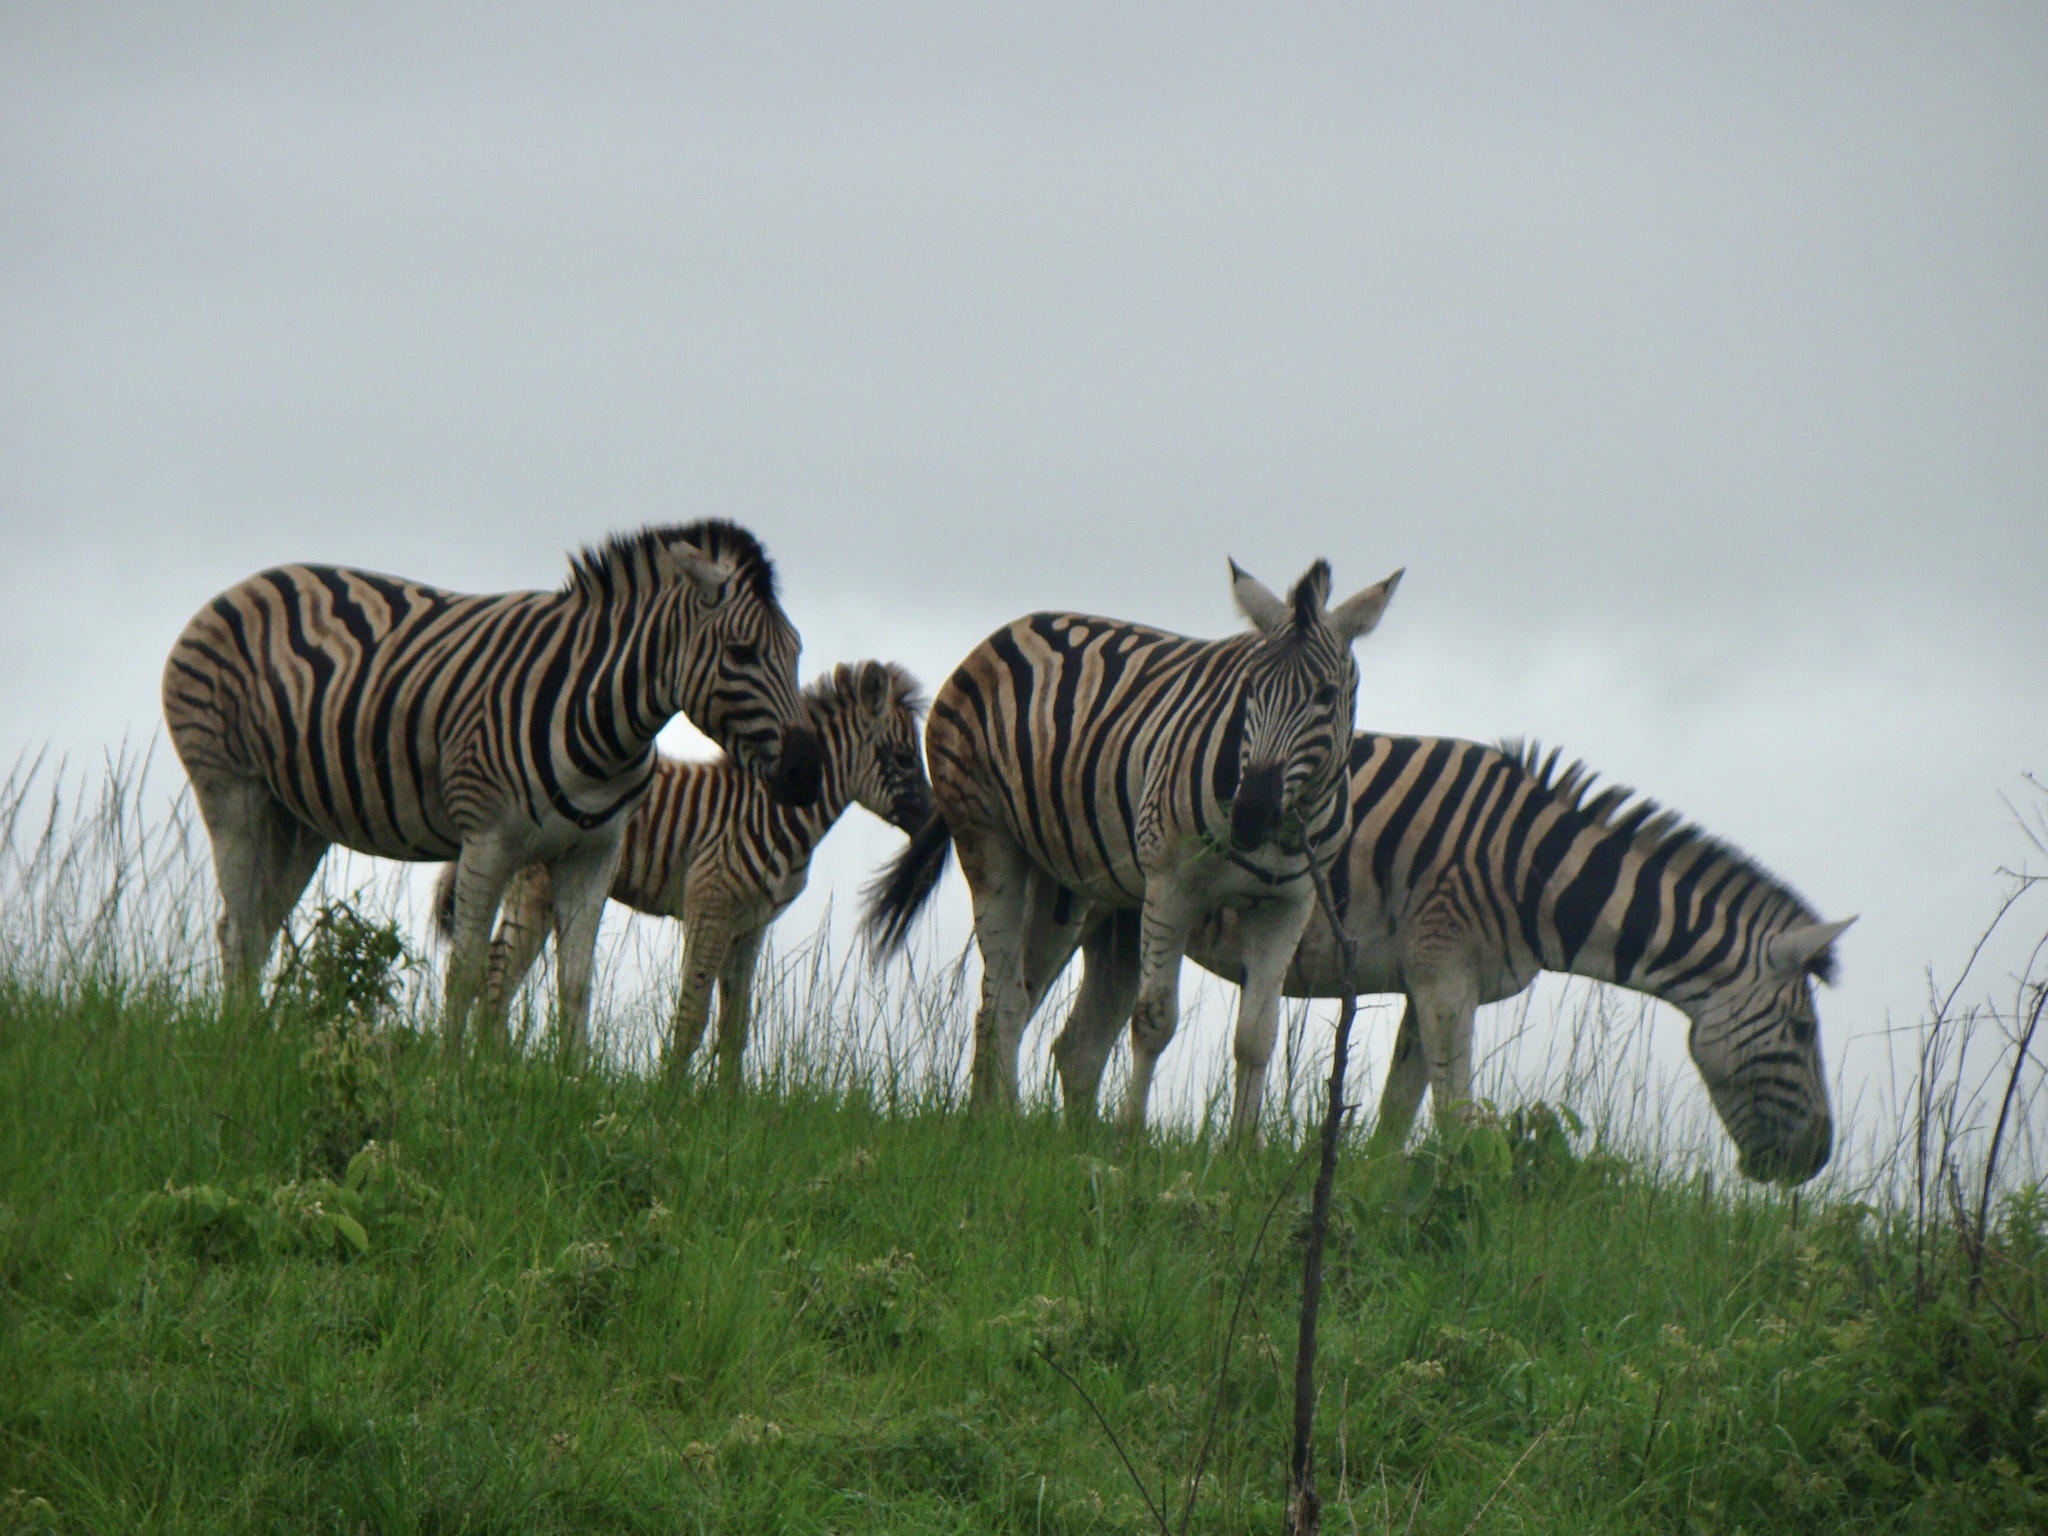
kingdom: Animalia
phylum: Chordata
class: Mammalia
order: Perissodactyla
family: Equidae
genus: Equus
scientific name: Equus quagga
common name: Plains zebra
